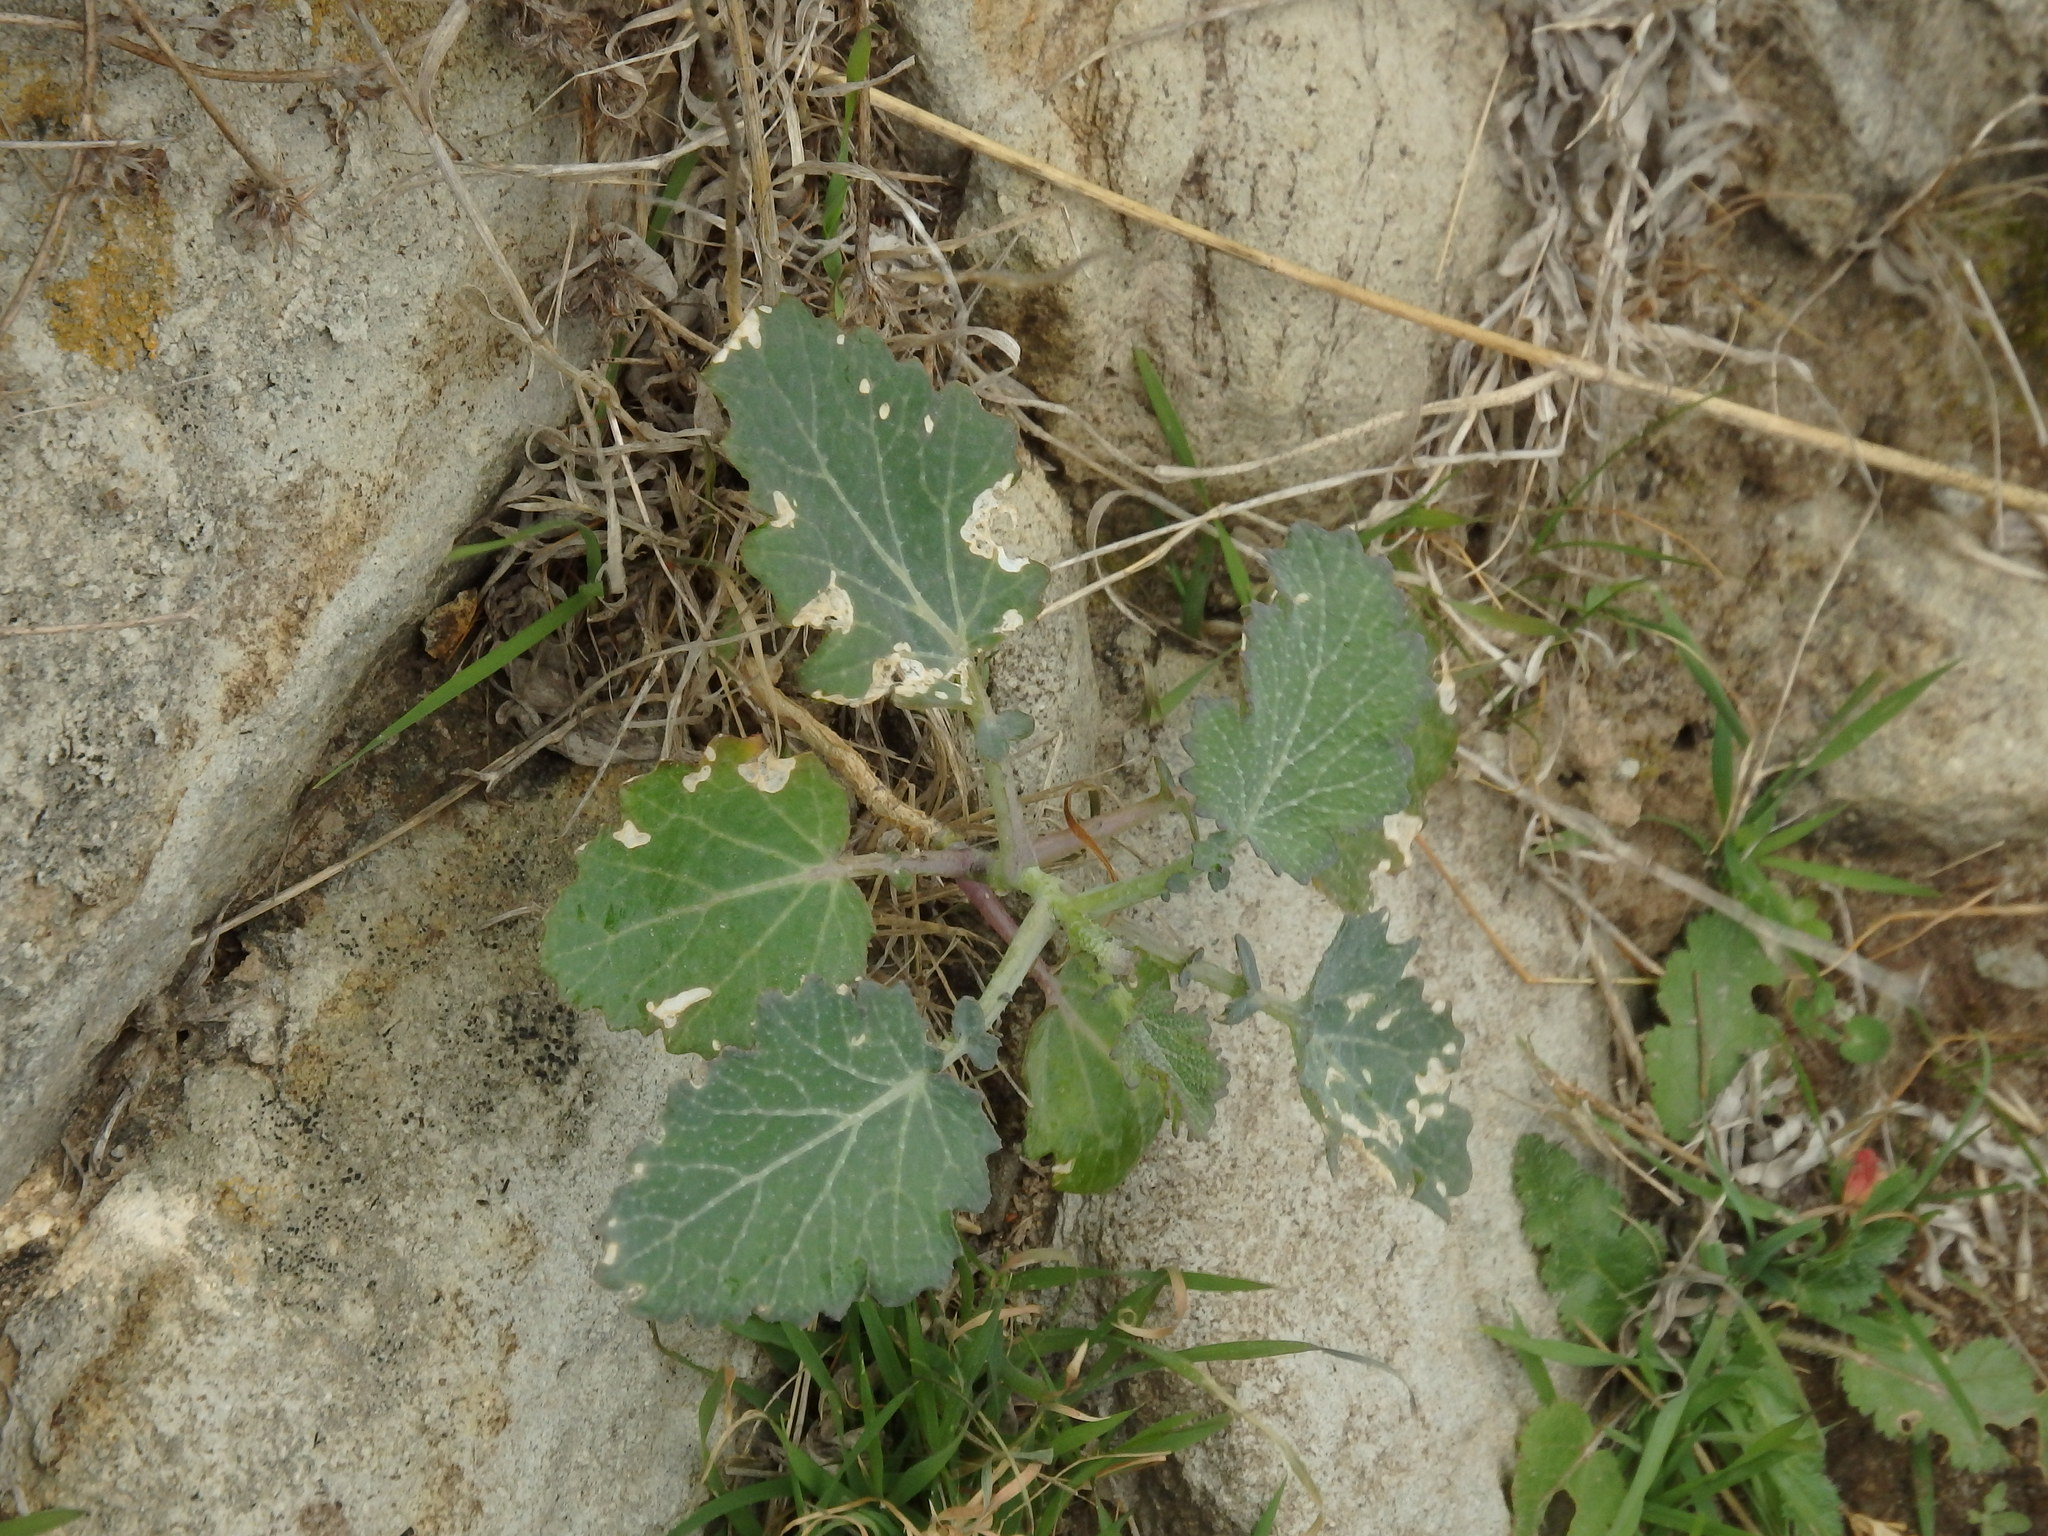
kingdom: Plantae
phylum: Tracheophyta
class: Magnoliopsida
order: Brassicales
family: Brassicaceae
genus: Crambe
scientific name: Crambe fruticosa
